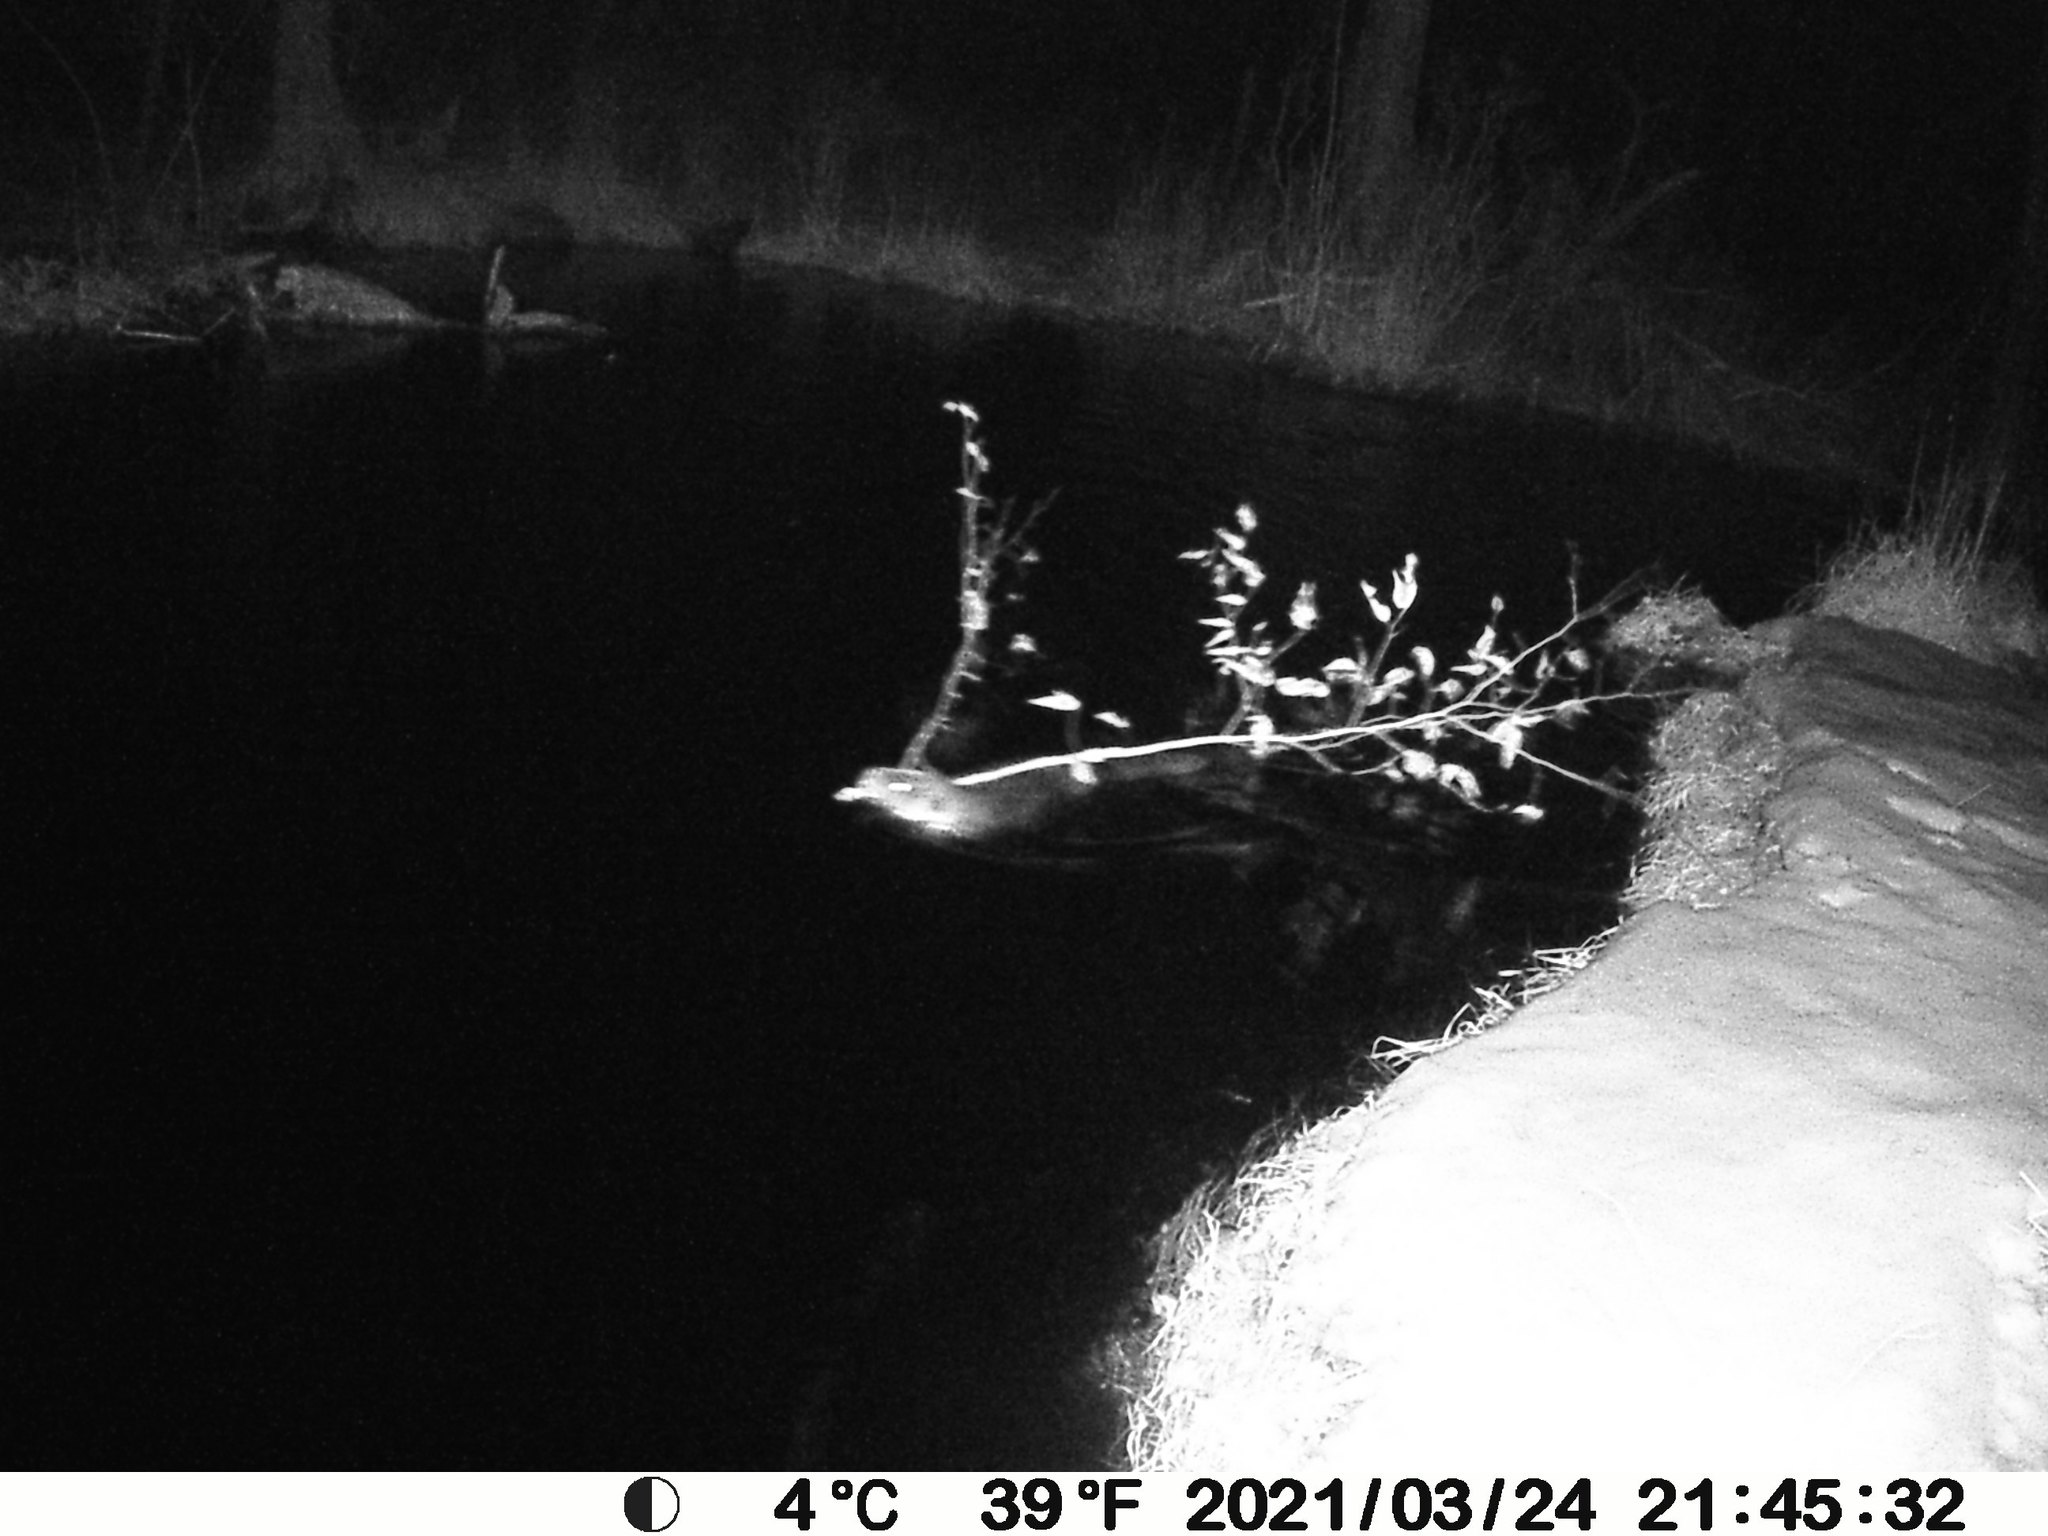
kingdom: Animalia
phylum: Chordata
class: Mammalia
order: Rodentia
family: Castoridae
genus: Castor
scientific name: Castor canadensis
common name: American beaver
